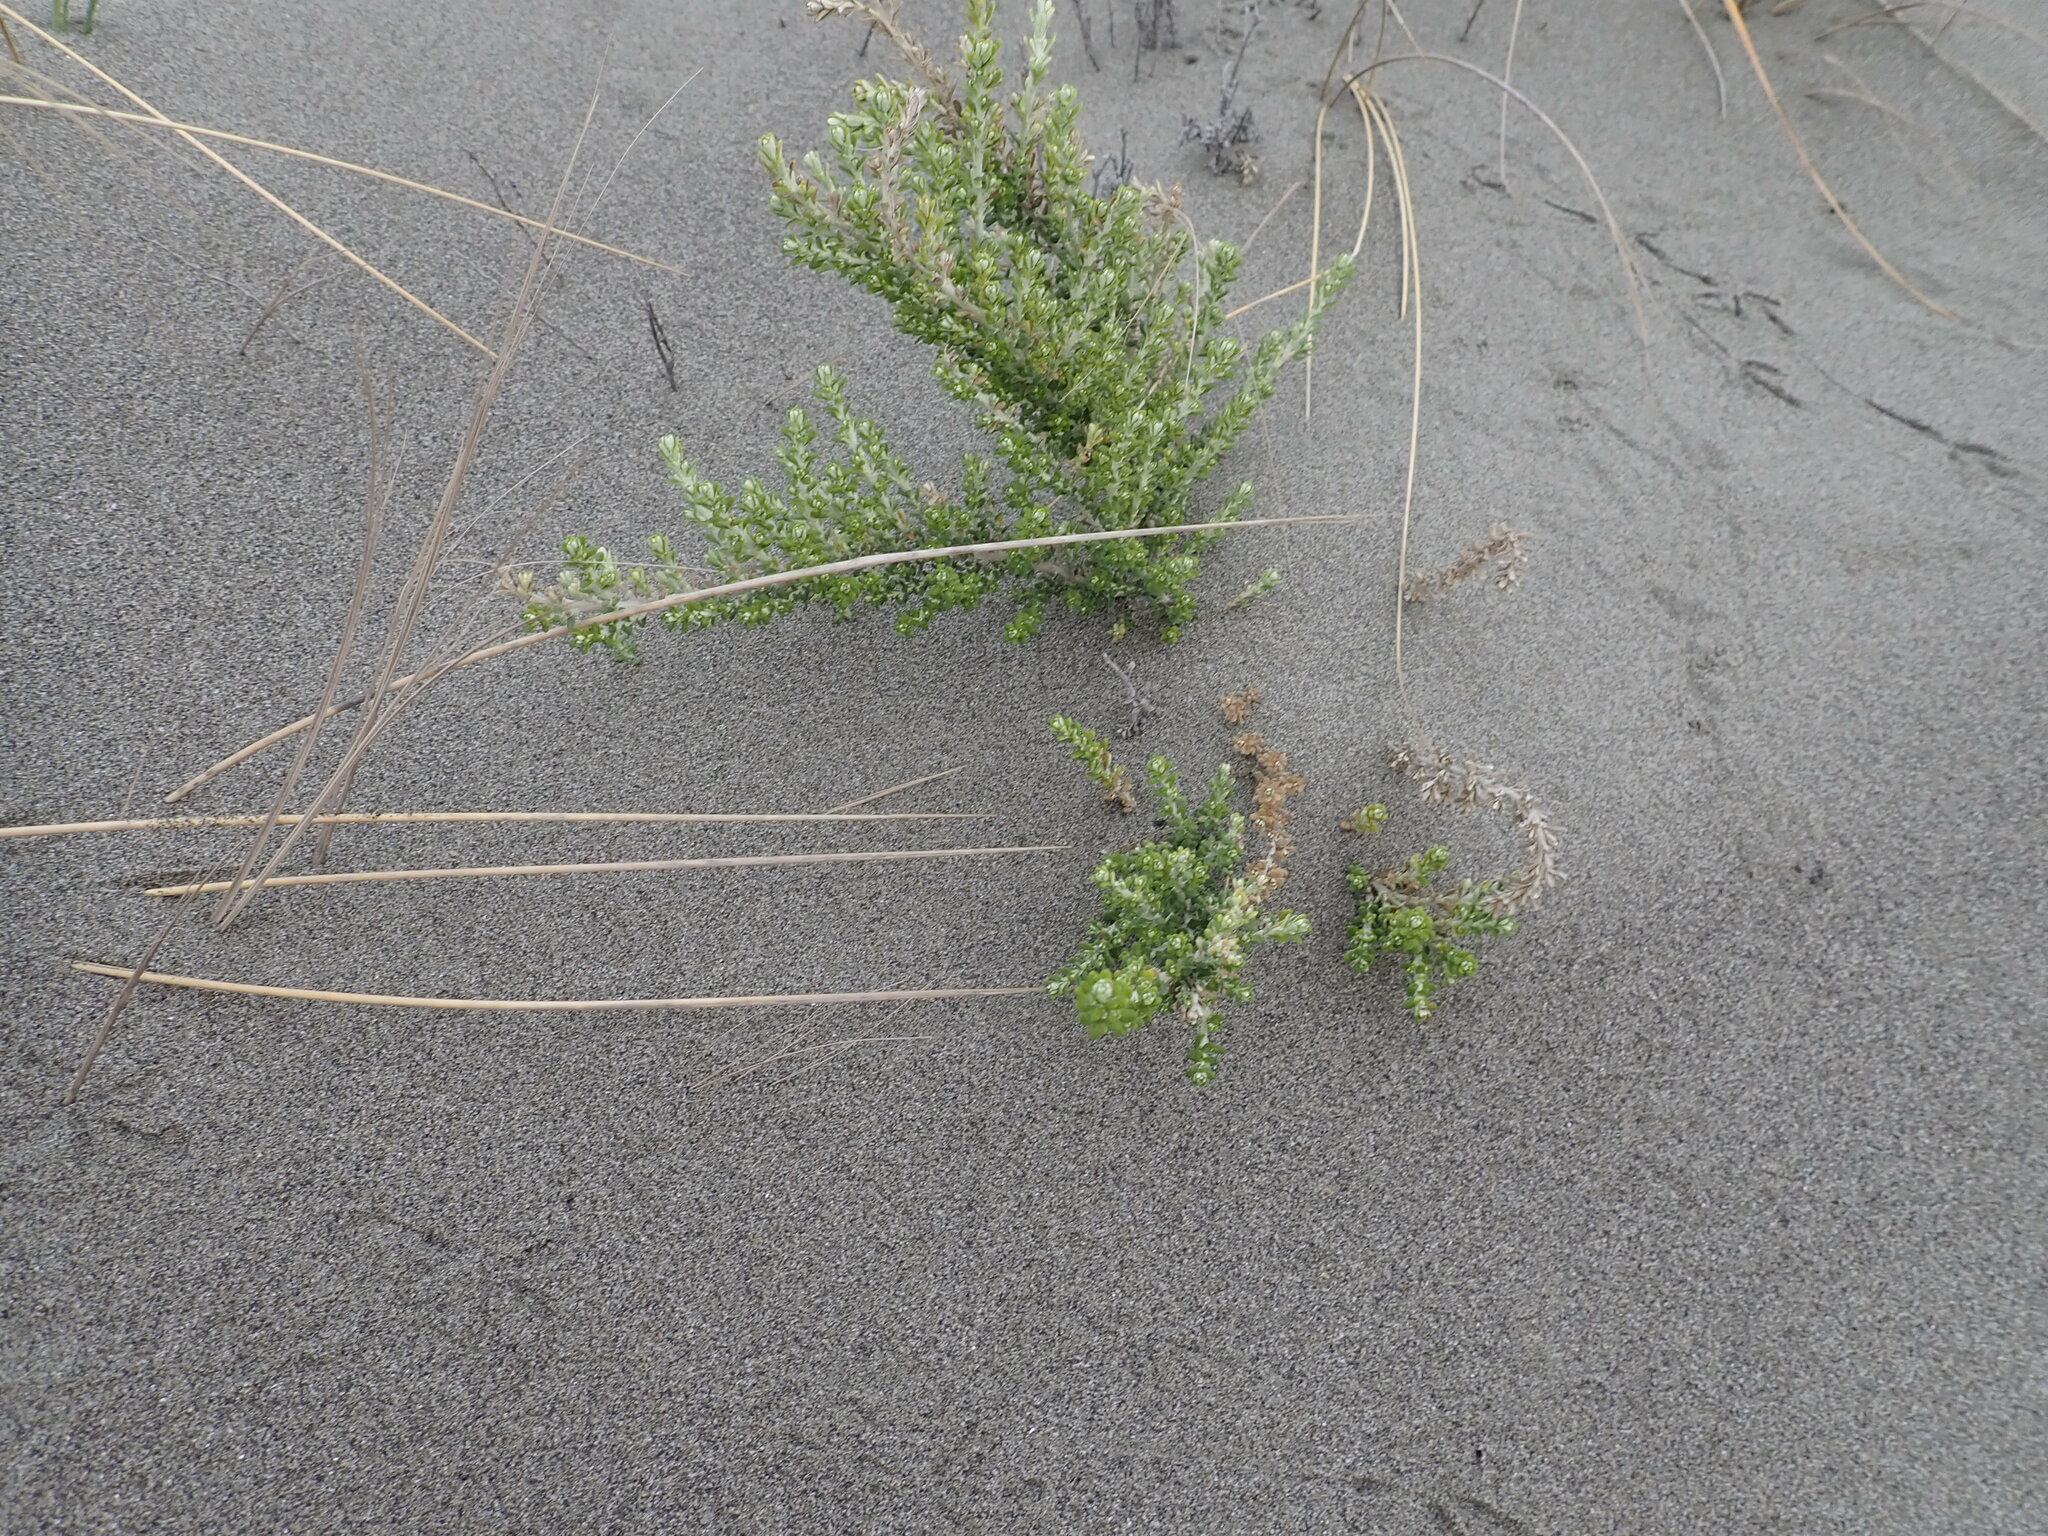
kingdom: Plantae
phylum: Tracheophyta
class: Magnoliopsida
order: Asterales
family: Asteraceae
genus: Ozothamnus
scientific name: Ozothamnus leptophyllus
